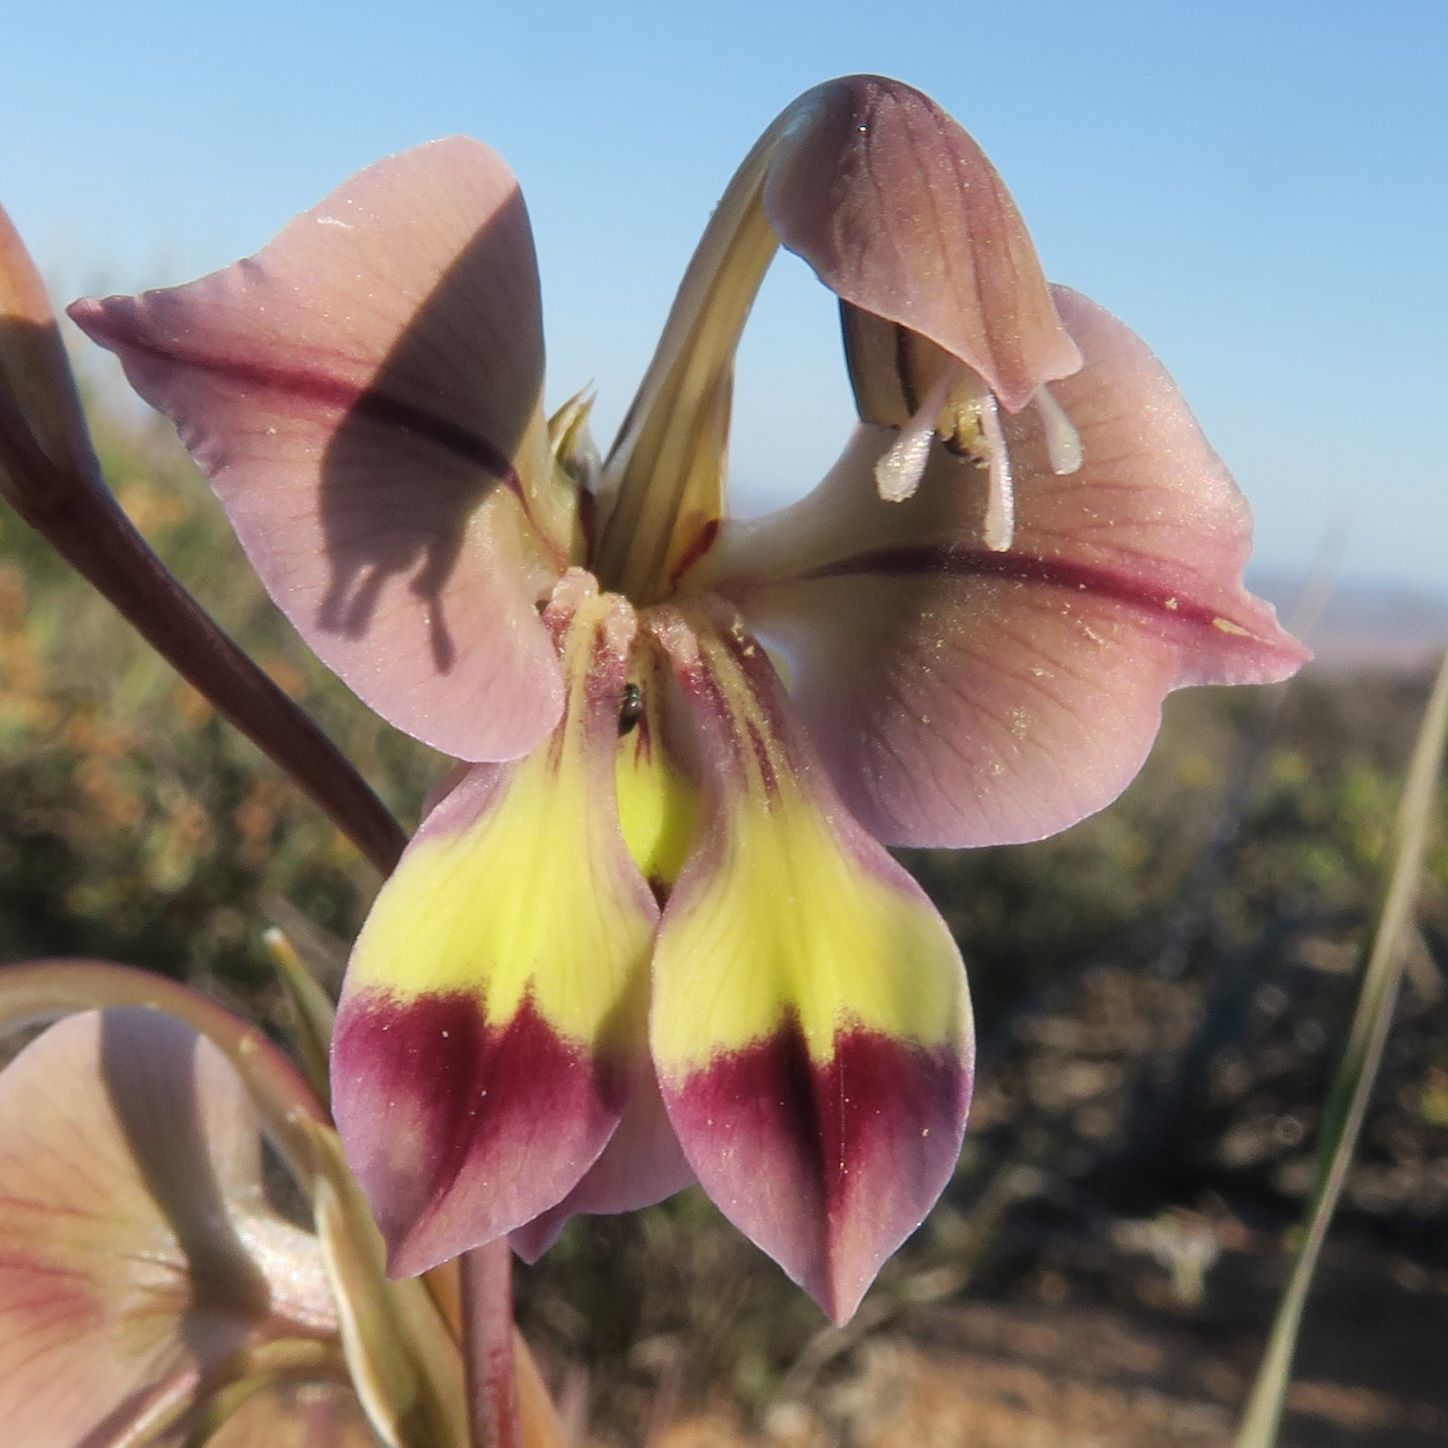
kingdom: Plantae
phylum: Tracheophyta
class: Liliopsida
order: Asparagales
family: Iridaceae
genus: Gladiolus
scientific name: Gladiolus orchidiflorus
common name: Gray kalkoentjie
